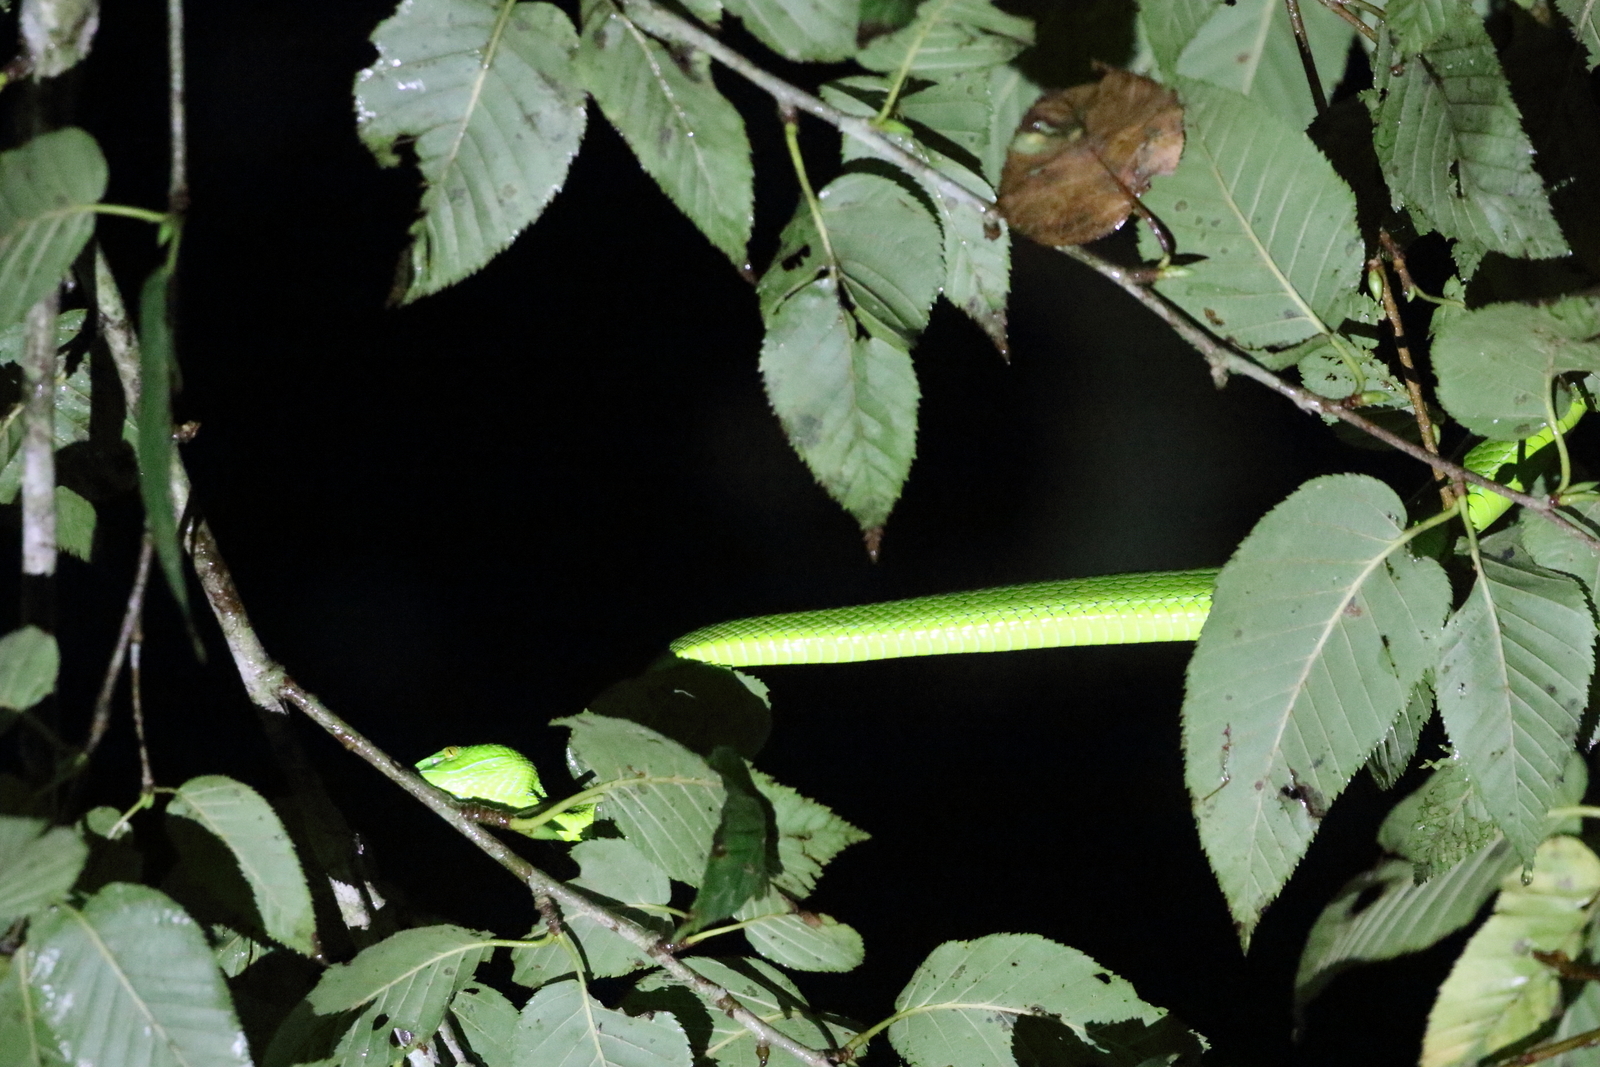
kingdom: Animalia
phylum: Chordata
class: Squamata
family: Viperidae
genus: Trimeresurus
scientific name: Trimeresurus gumprechti
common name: Gumprecht's pit viper
